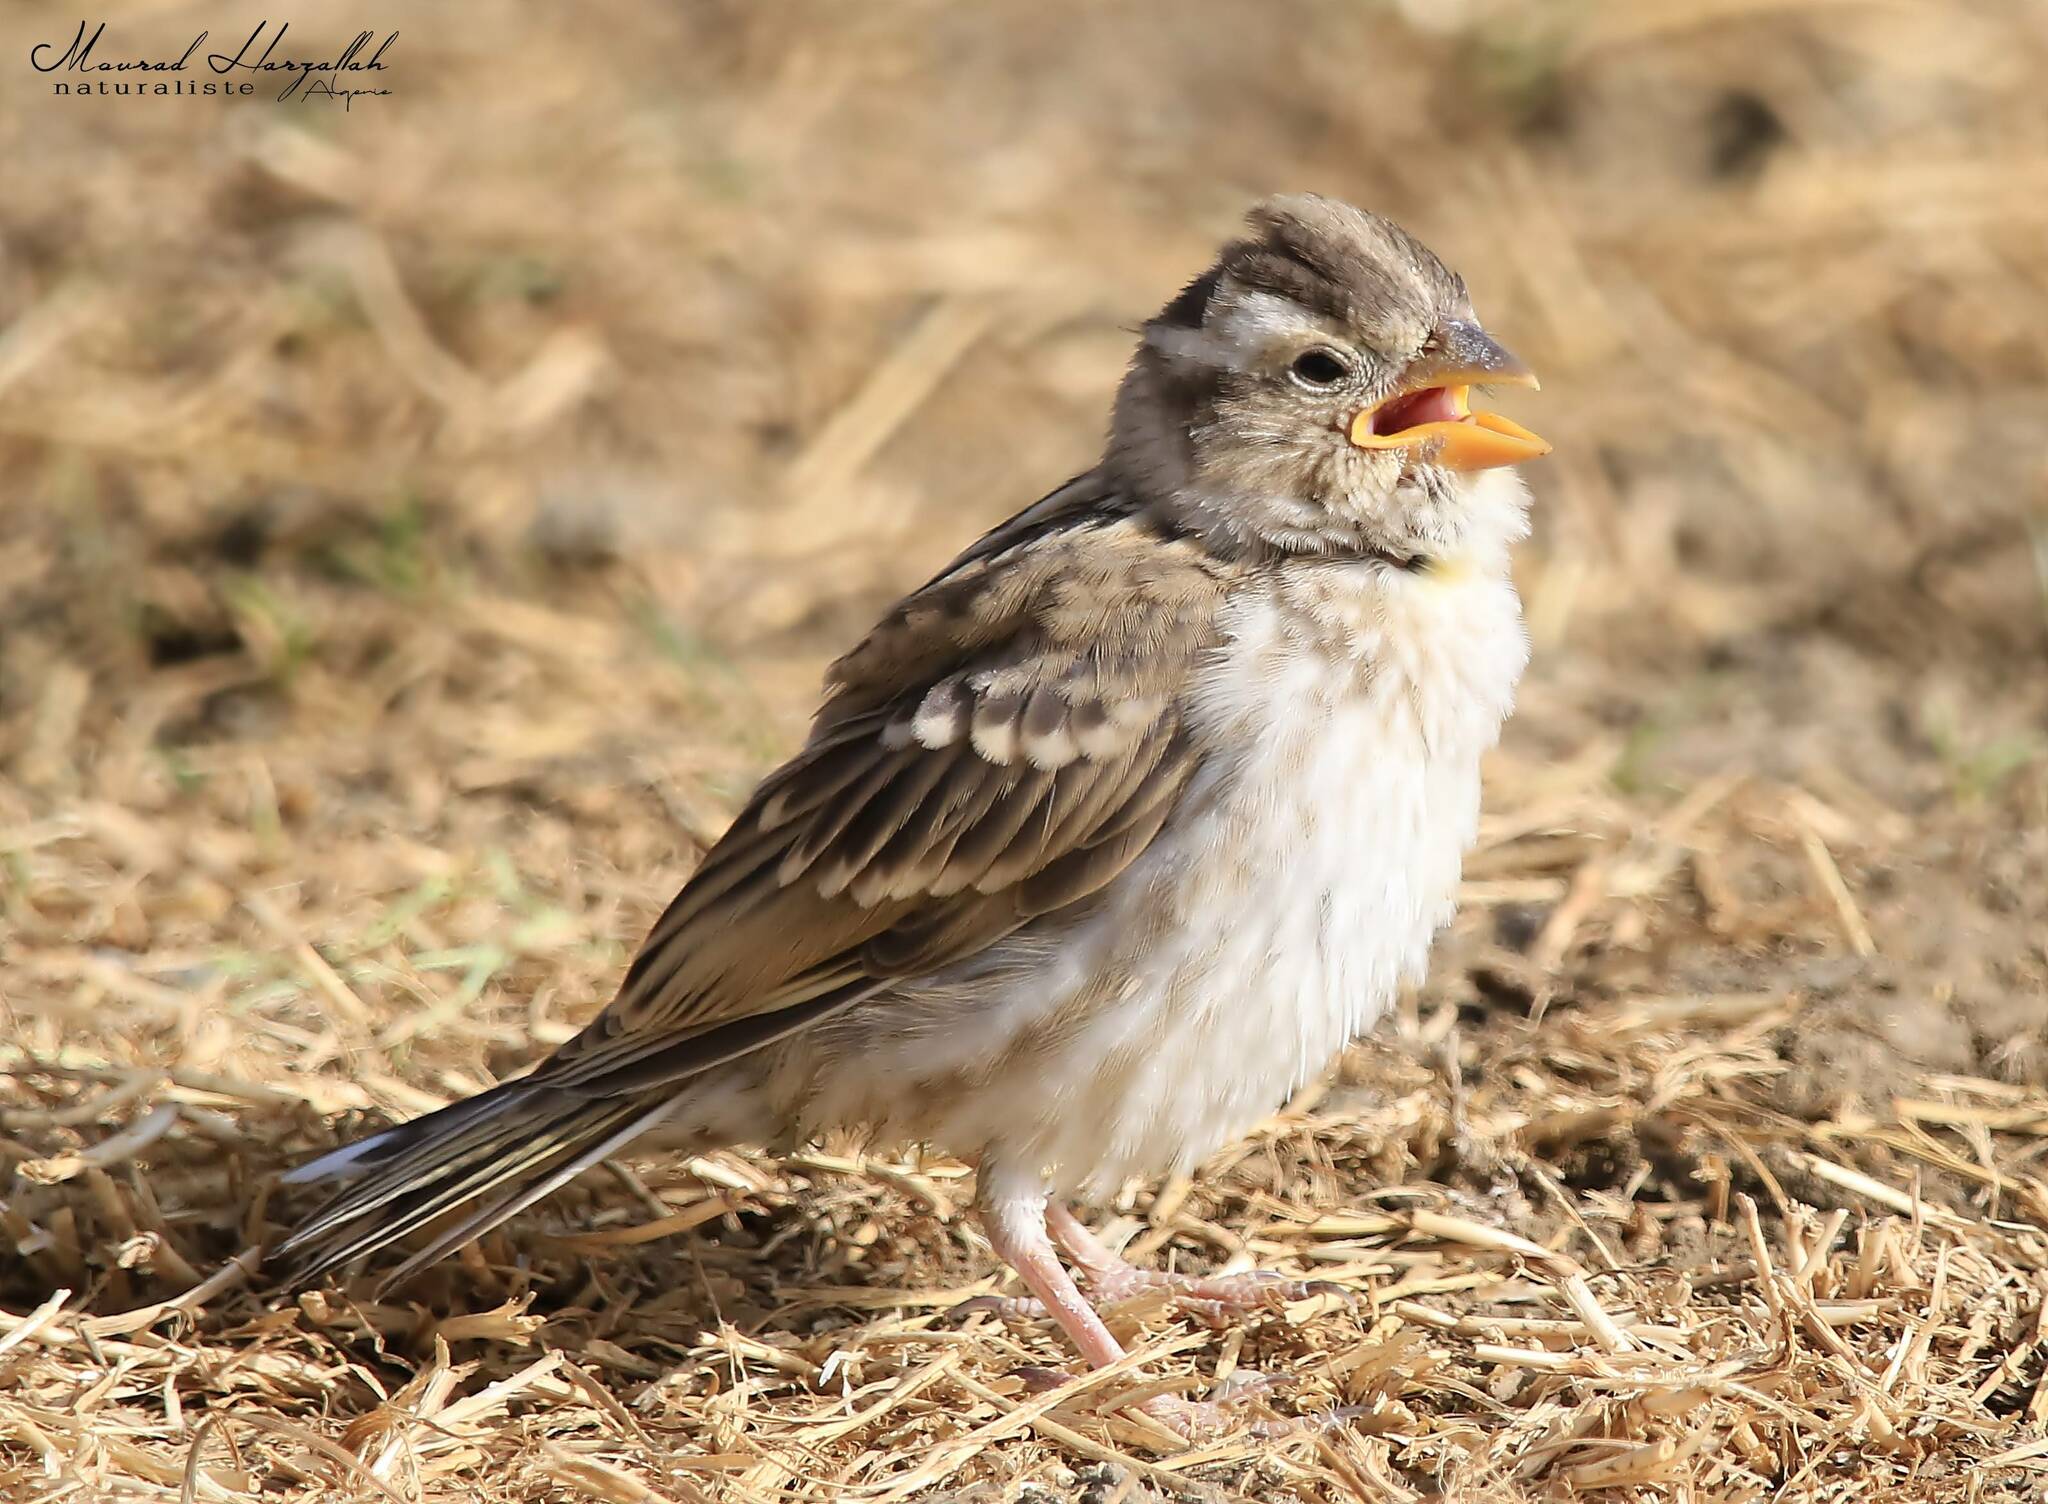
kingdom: Animalia
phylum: Chordata
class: Aves
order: Passeriformes
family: Passeridae
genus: Petronia
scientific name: Petronia petronia
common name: Rock sparrow
